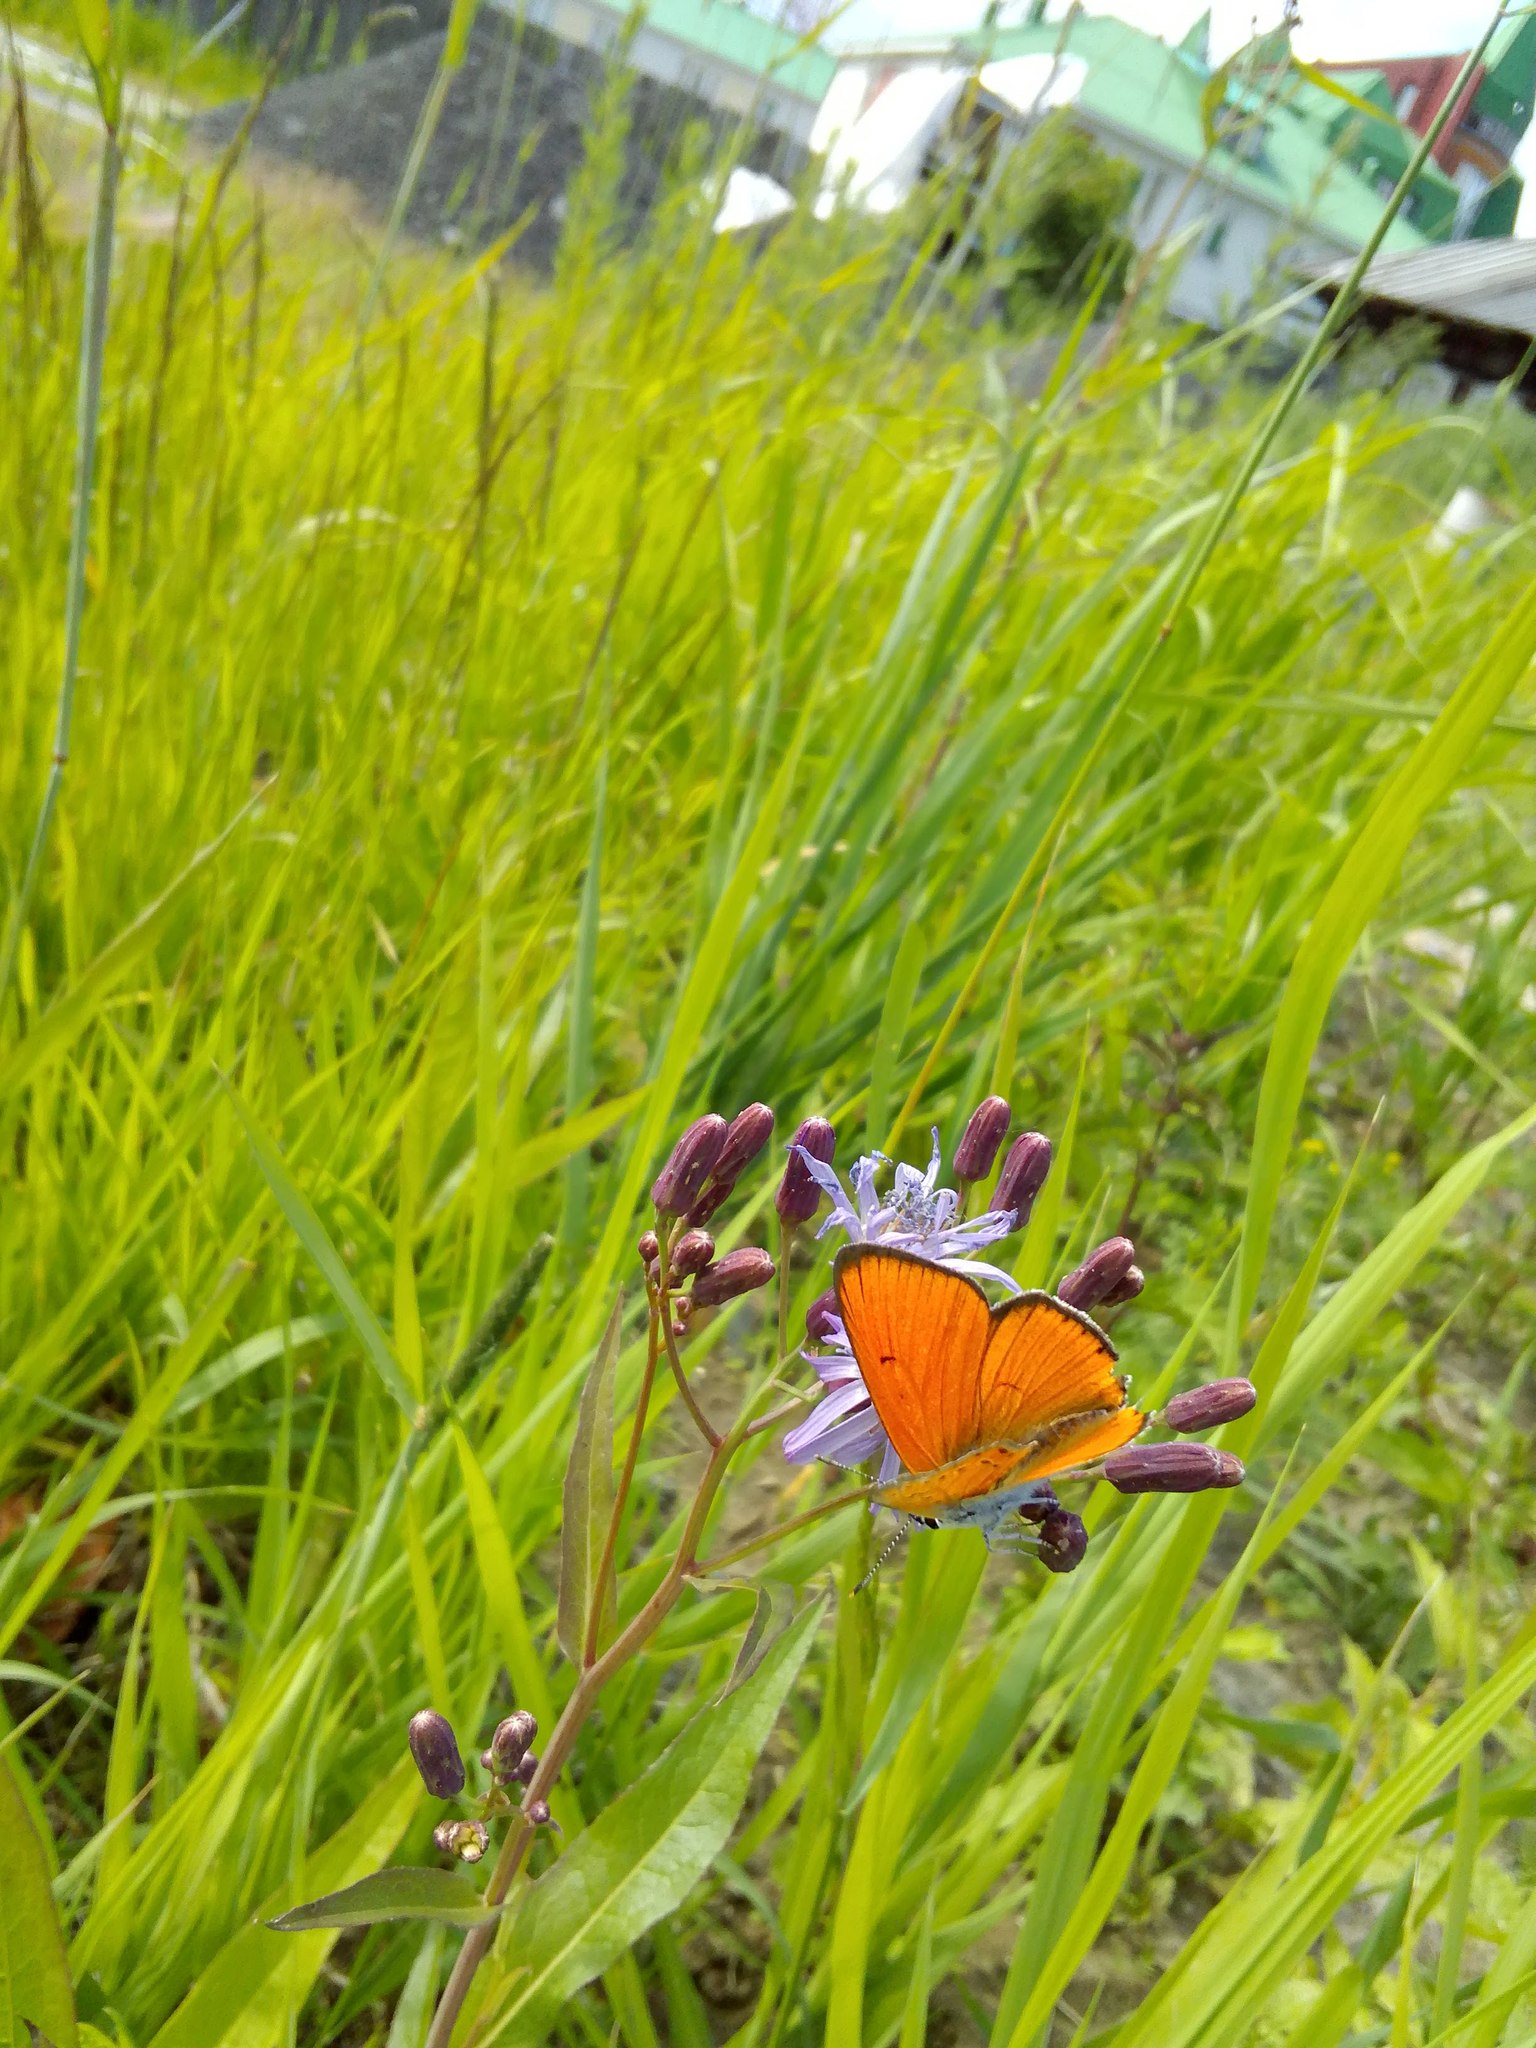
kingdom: Animalia
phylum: Arthropoda
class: Insecta
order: Lepidoptera
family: Lycaenidae
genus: Lycaena
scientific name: Lycaena dispar
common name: Large copper
